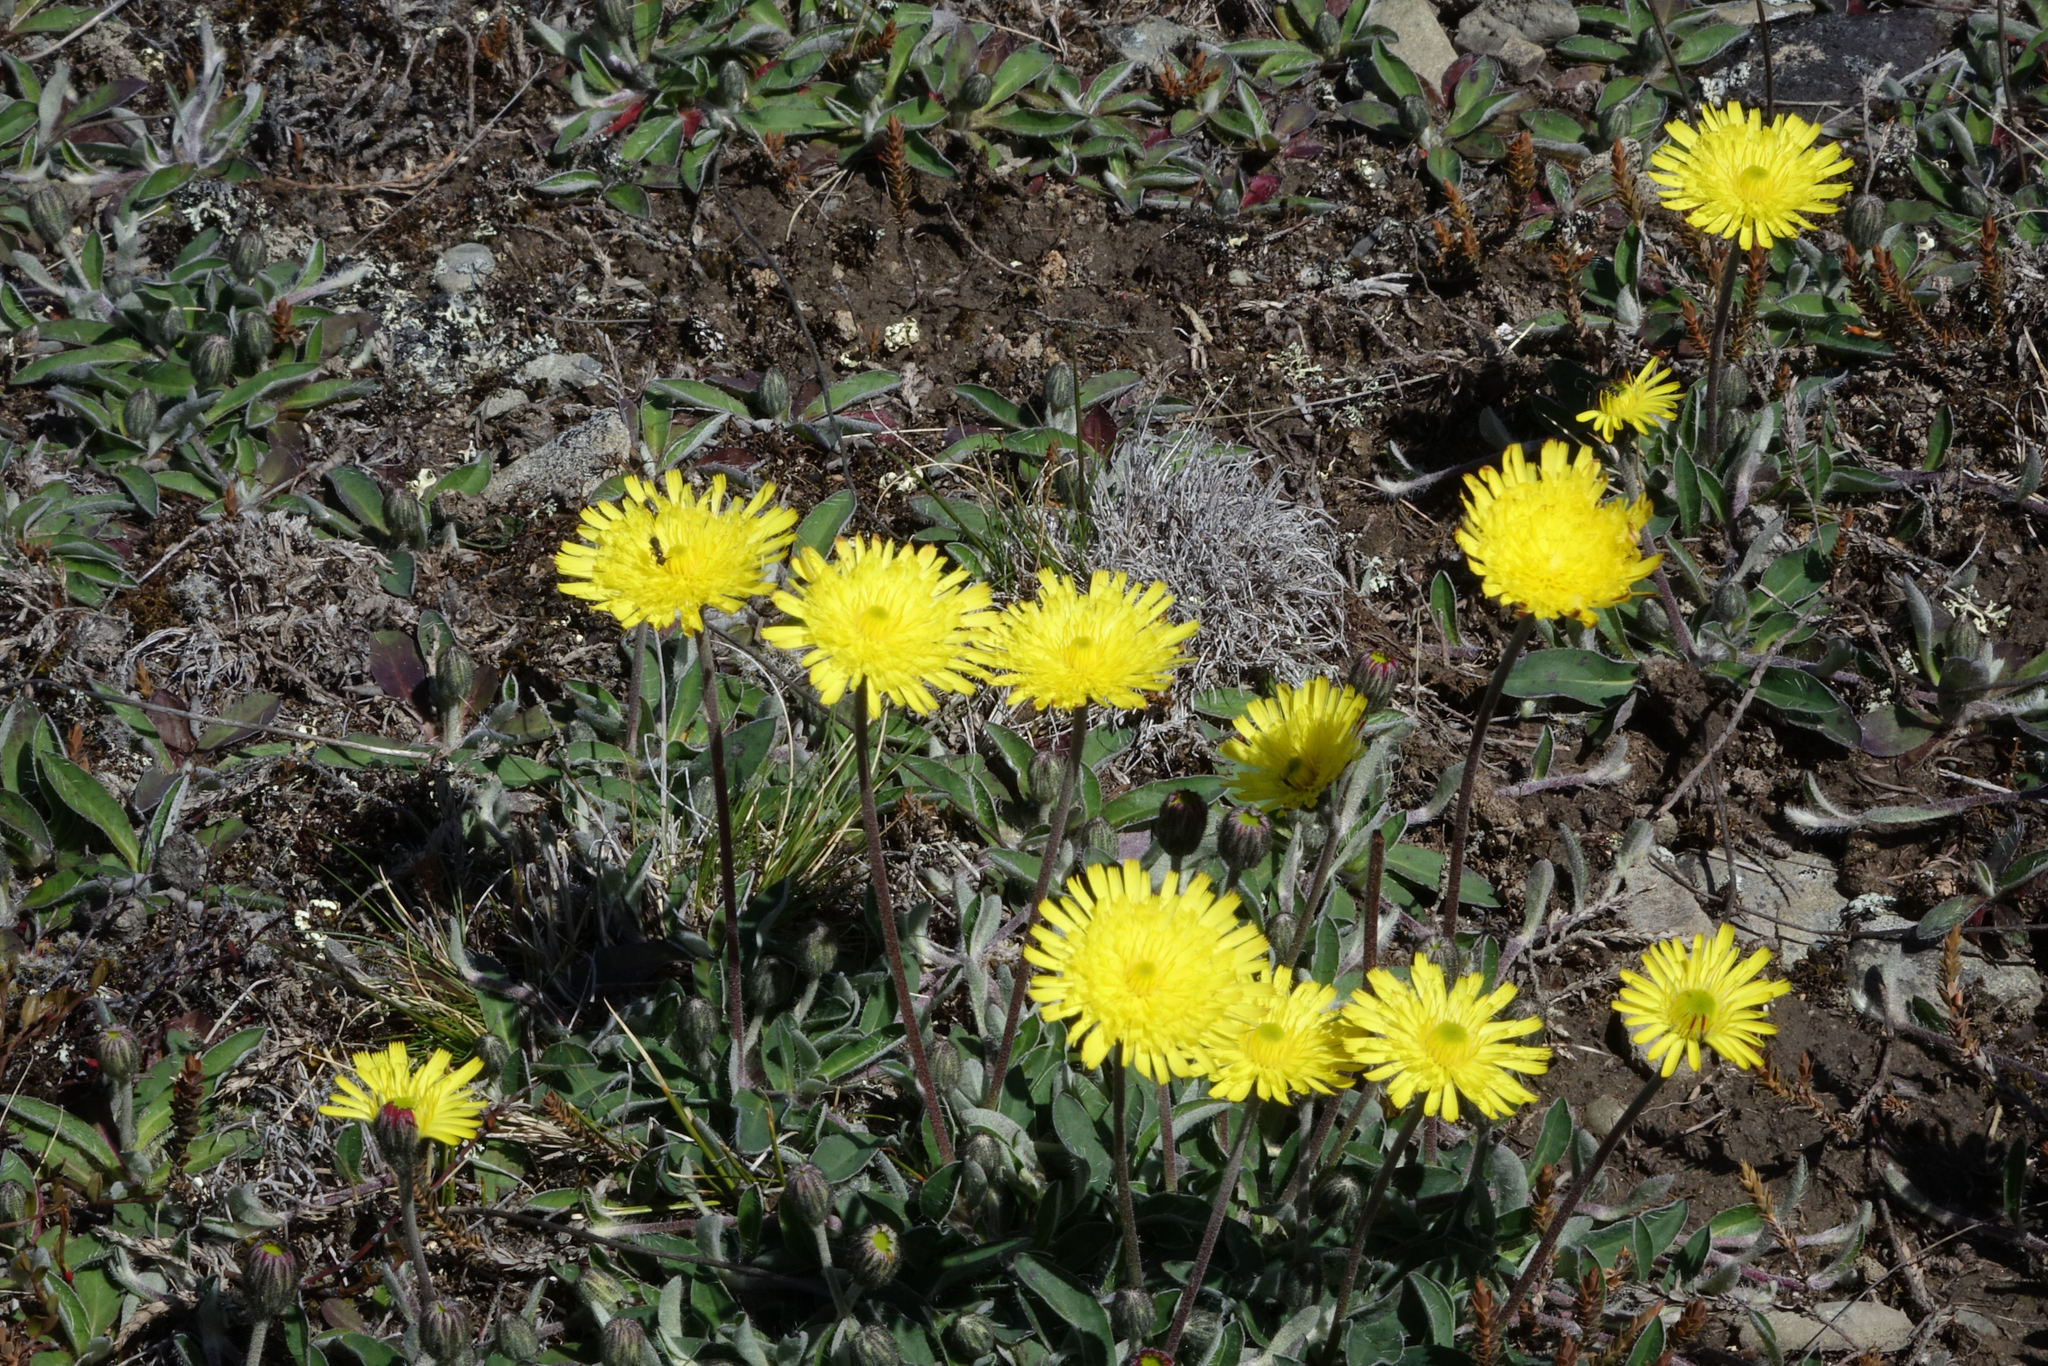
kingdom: Plantae
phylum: Tracheophyta
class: Magnoliopsida
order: Asterales
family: Asteraceae
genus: Pilosella
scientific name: Pilosella officinarum
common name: Mouse-ear hawkweed
